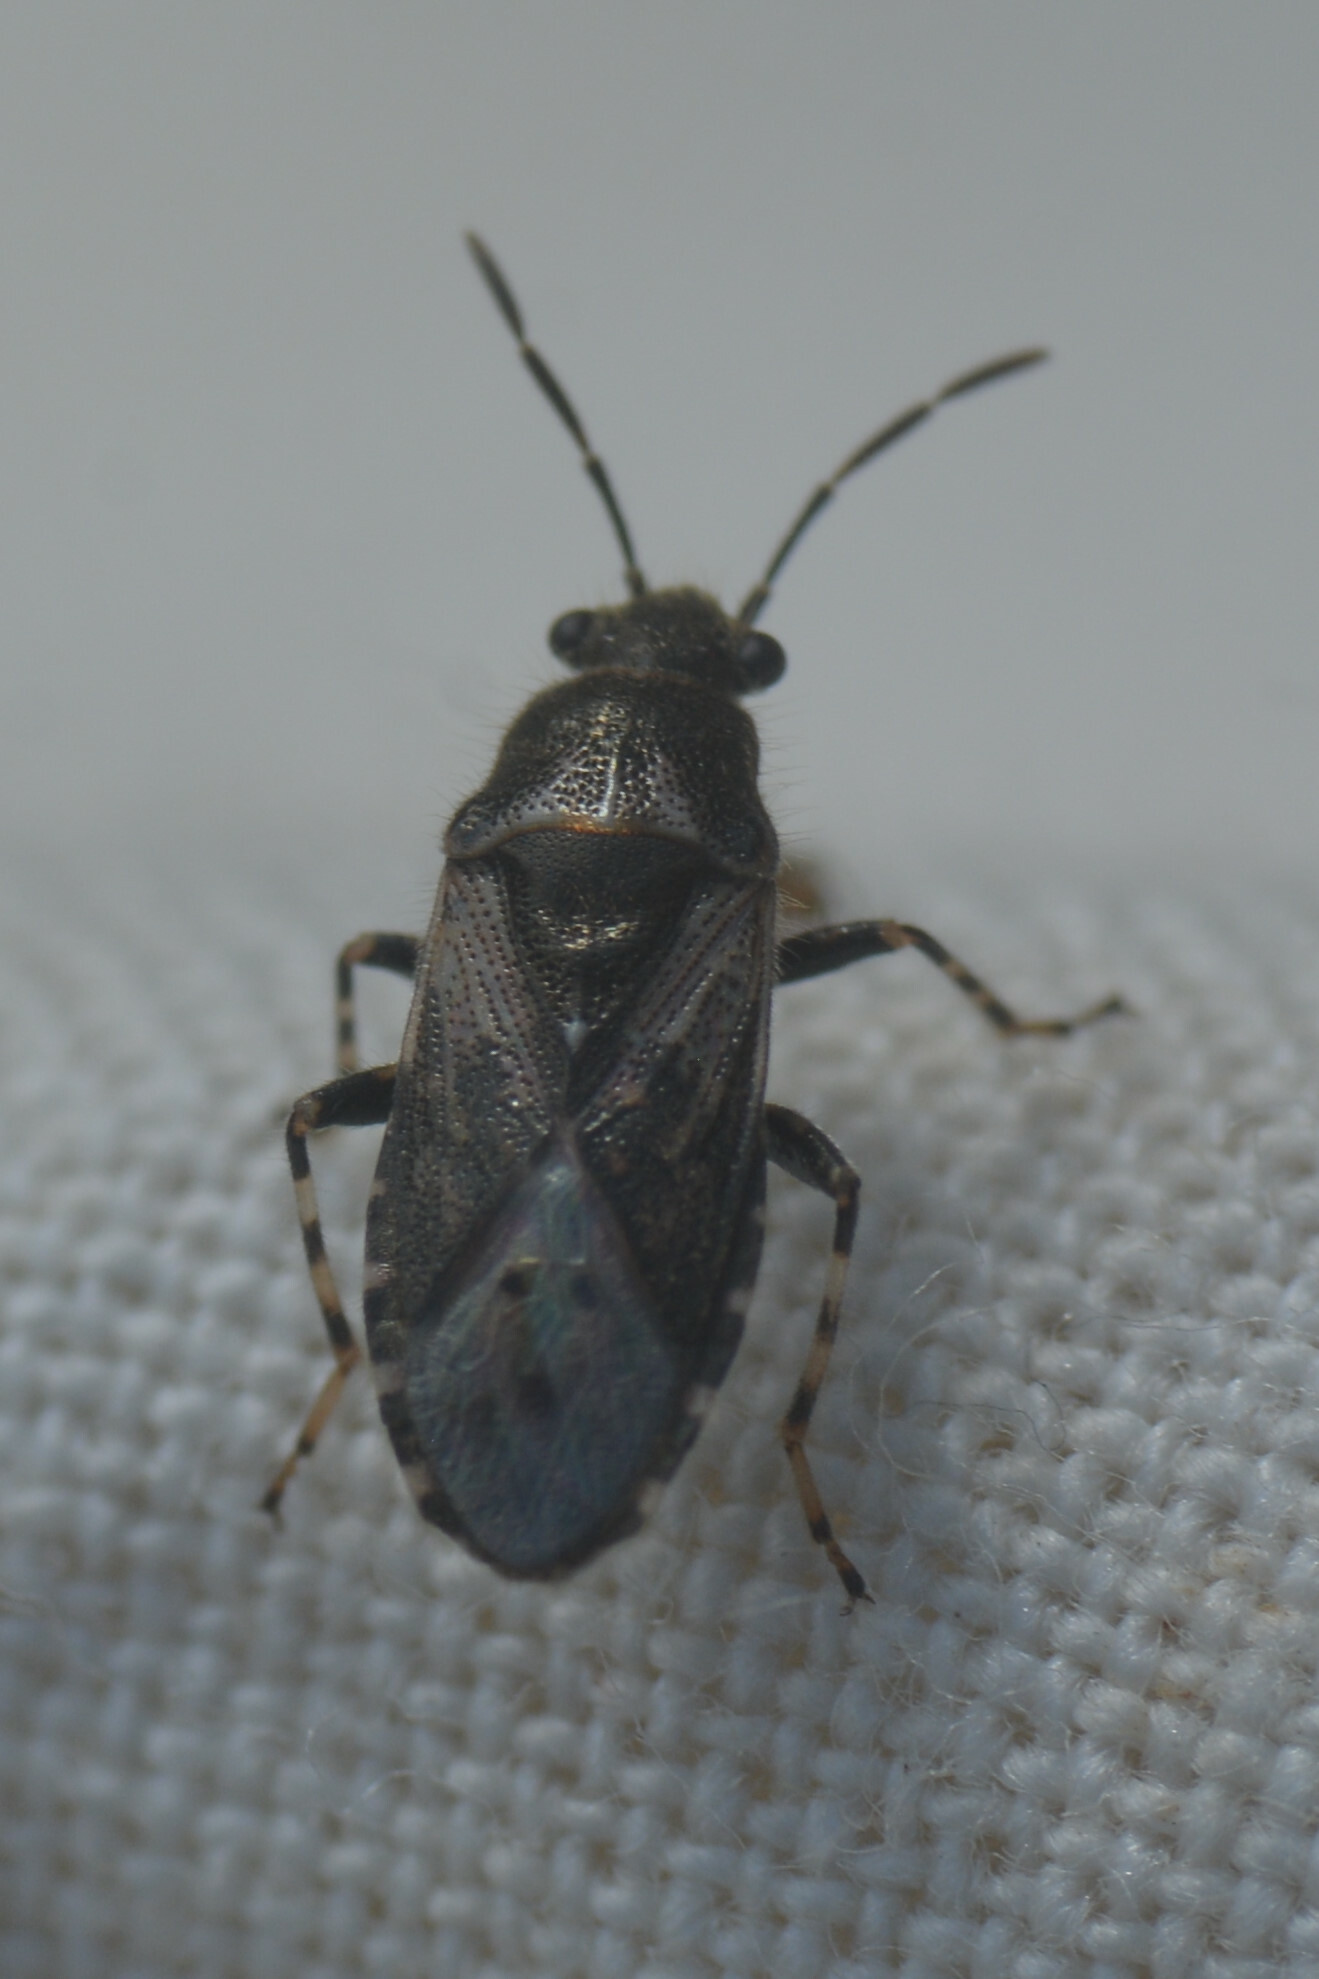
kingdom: Animalia
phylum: Arthropoda
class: Insecta
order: Hemiptera
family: Heterogastridae
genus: Heterogaster
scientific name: Heterogaster urticae
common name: Seed bug
